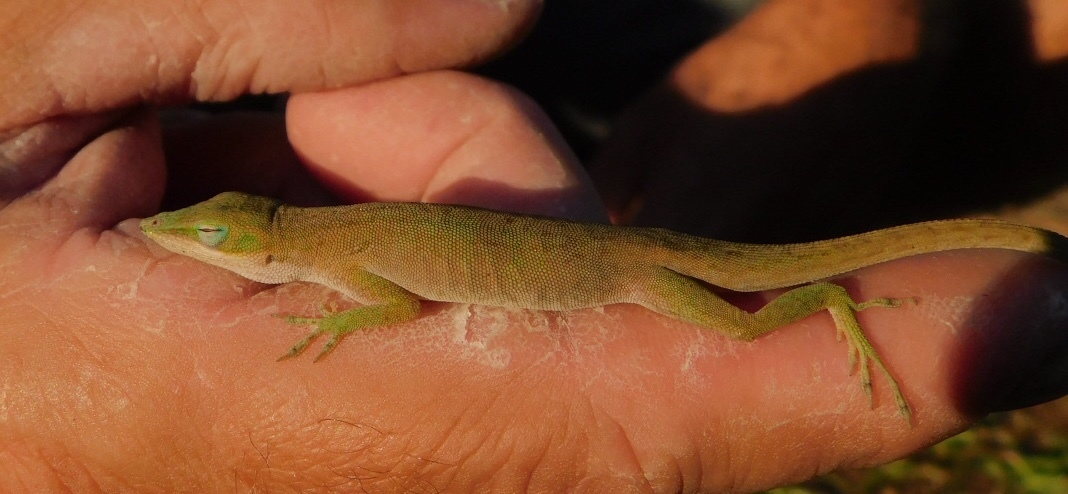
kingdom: Animalia
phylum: Chordata
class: Squamata
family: Dactyloidae
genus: Anolis
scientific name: Anolis carolinensis
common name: Green anole
